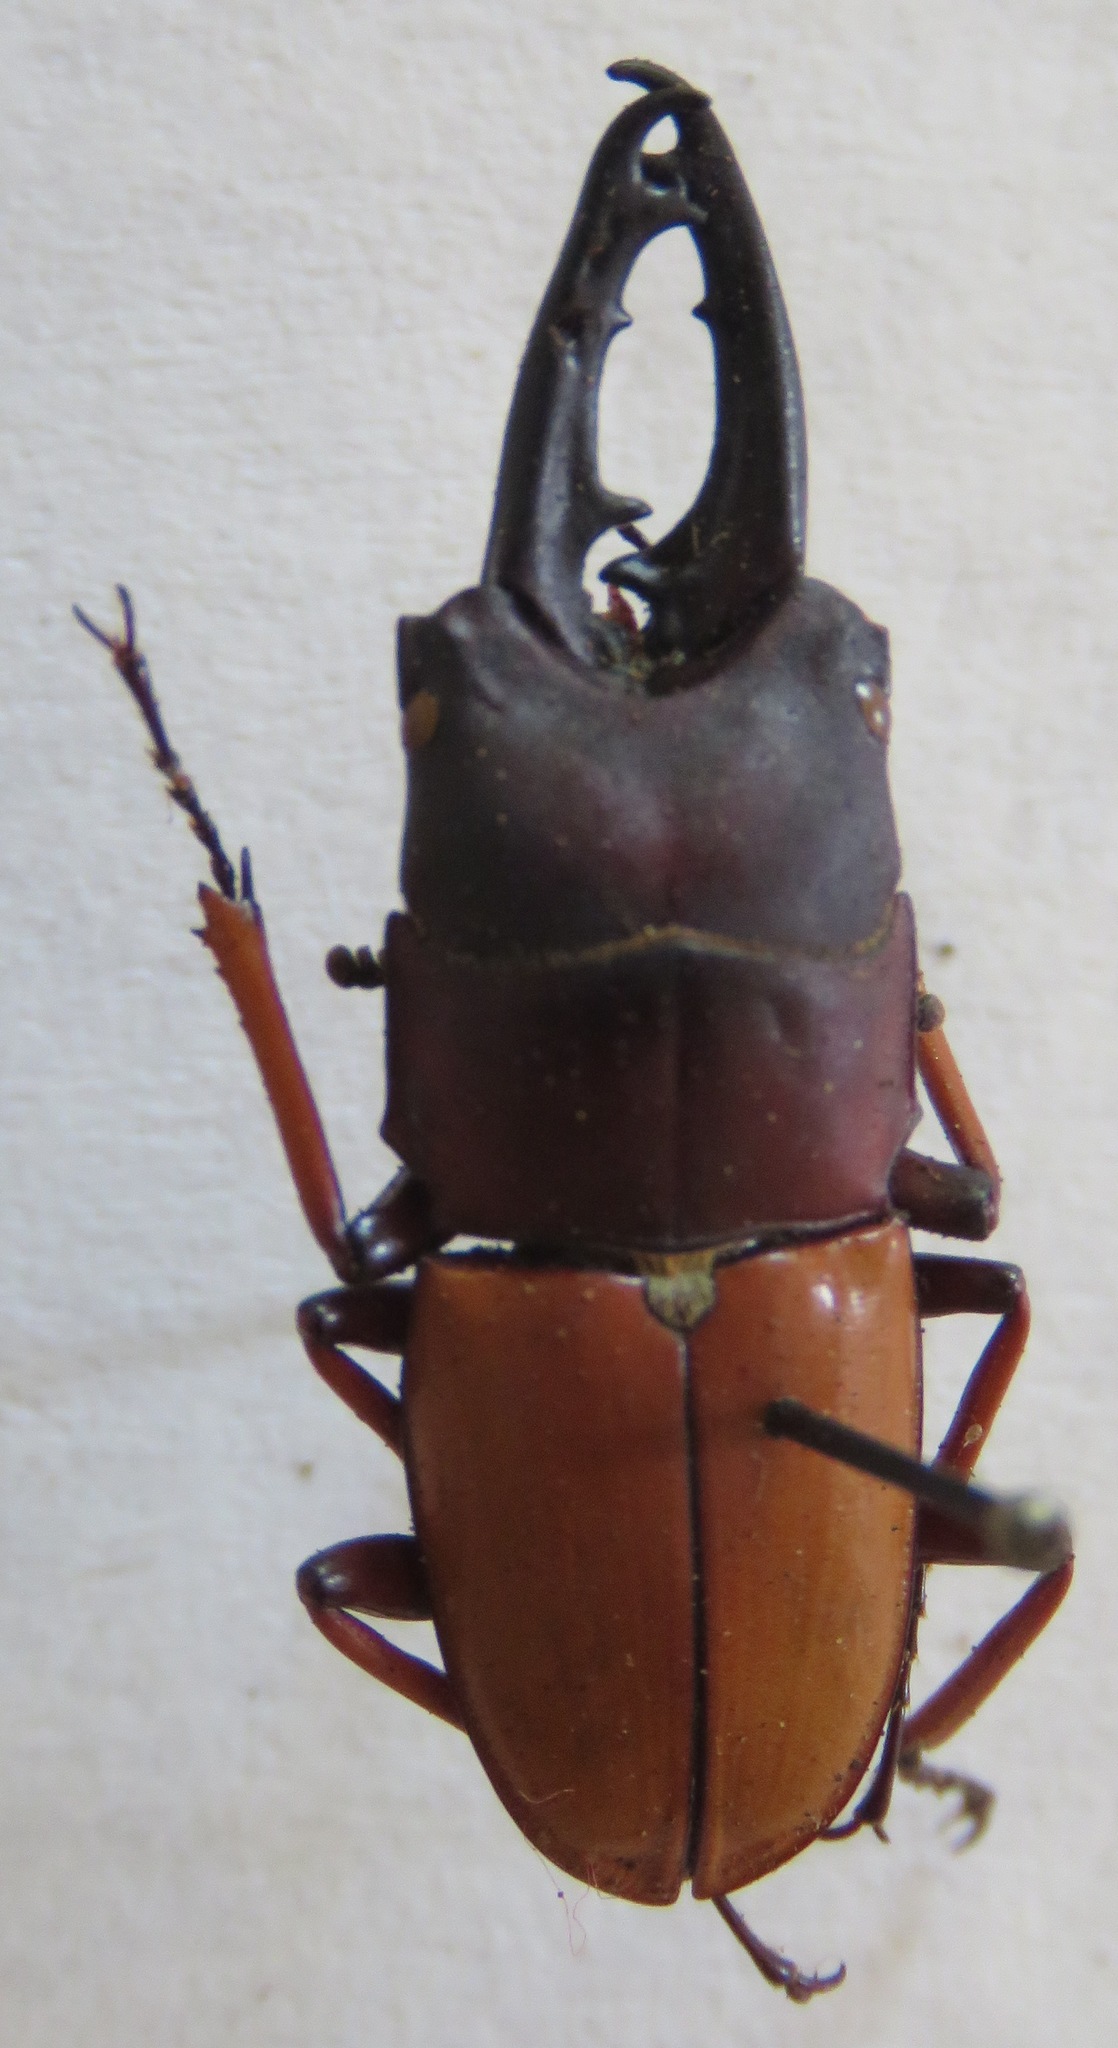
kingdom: Animalia
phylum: Arthropoda
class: Insecta
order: Coleoptera
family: Lucanidae
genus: Leptinopterus
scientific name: Leptinopterus tibialis
